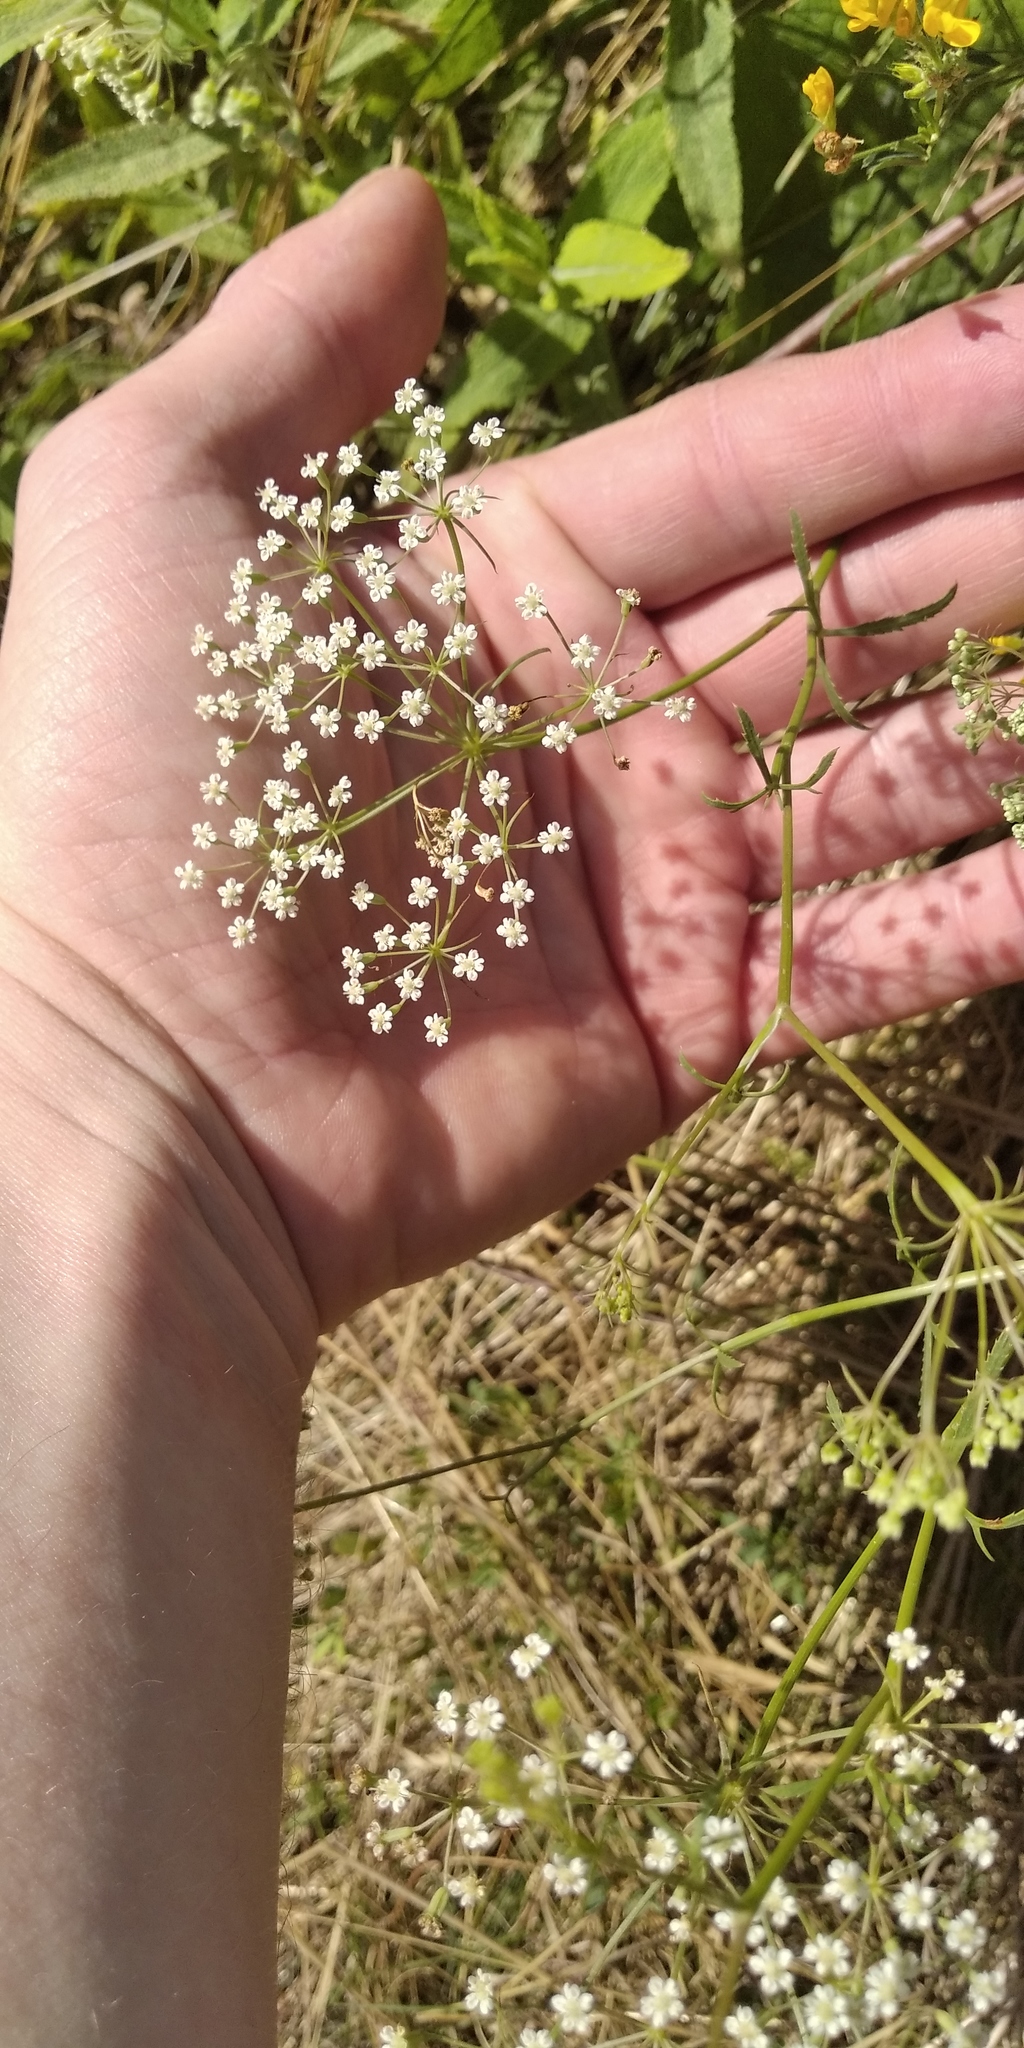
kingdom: Plantae
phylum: Tracheophyta
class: Magnoliopsida
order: Apiales
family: Apiaceae
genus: Falcaria
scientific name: Falcaria vulgaris
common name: Longleaf
